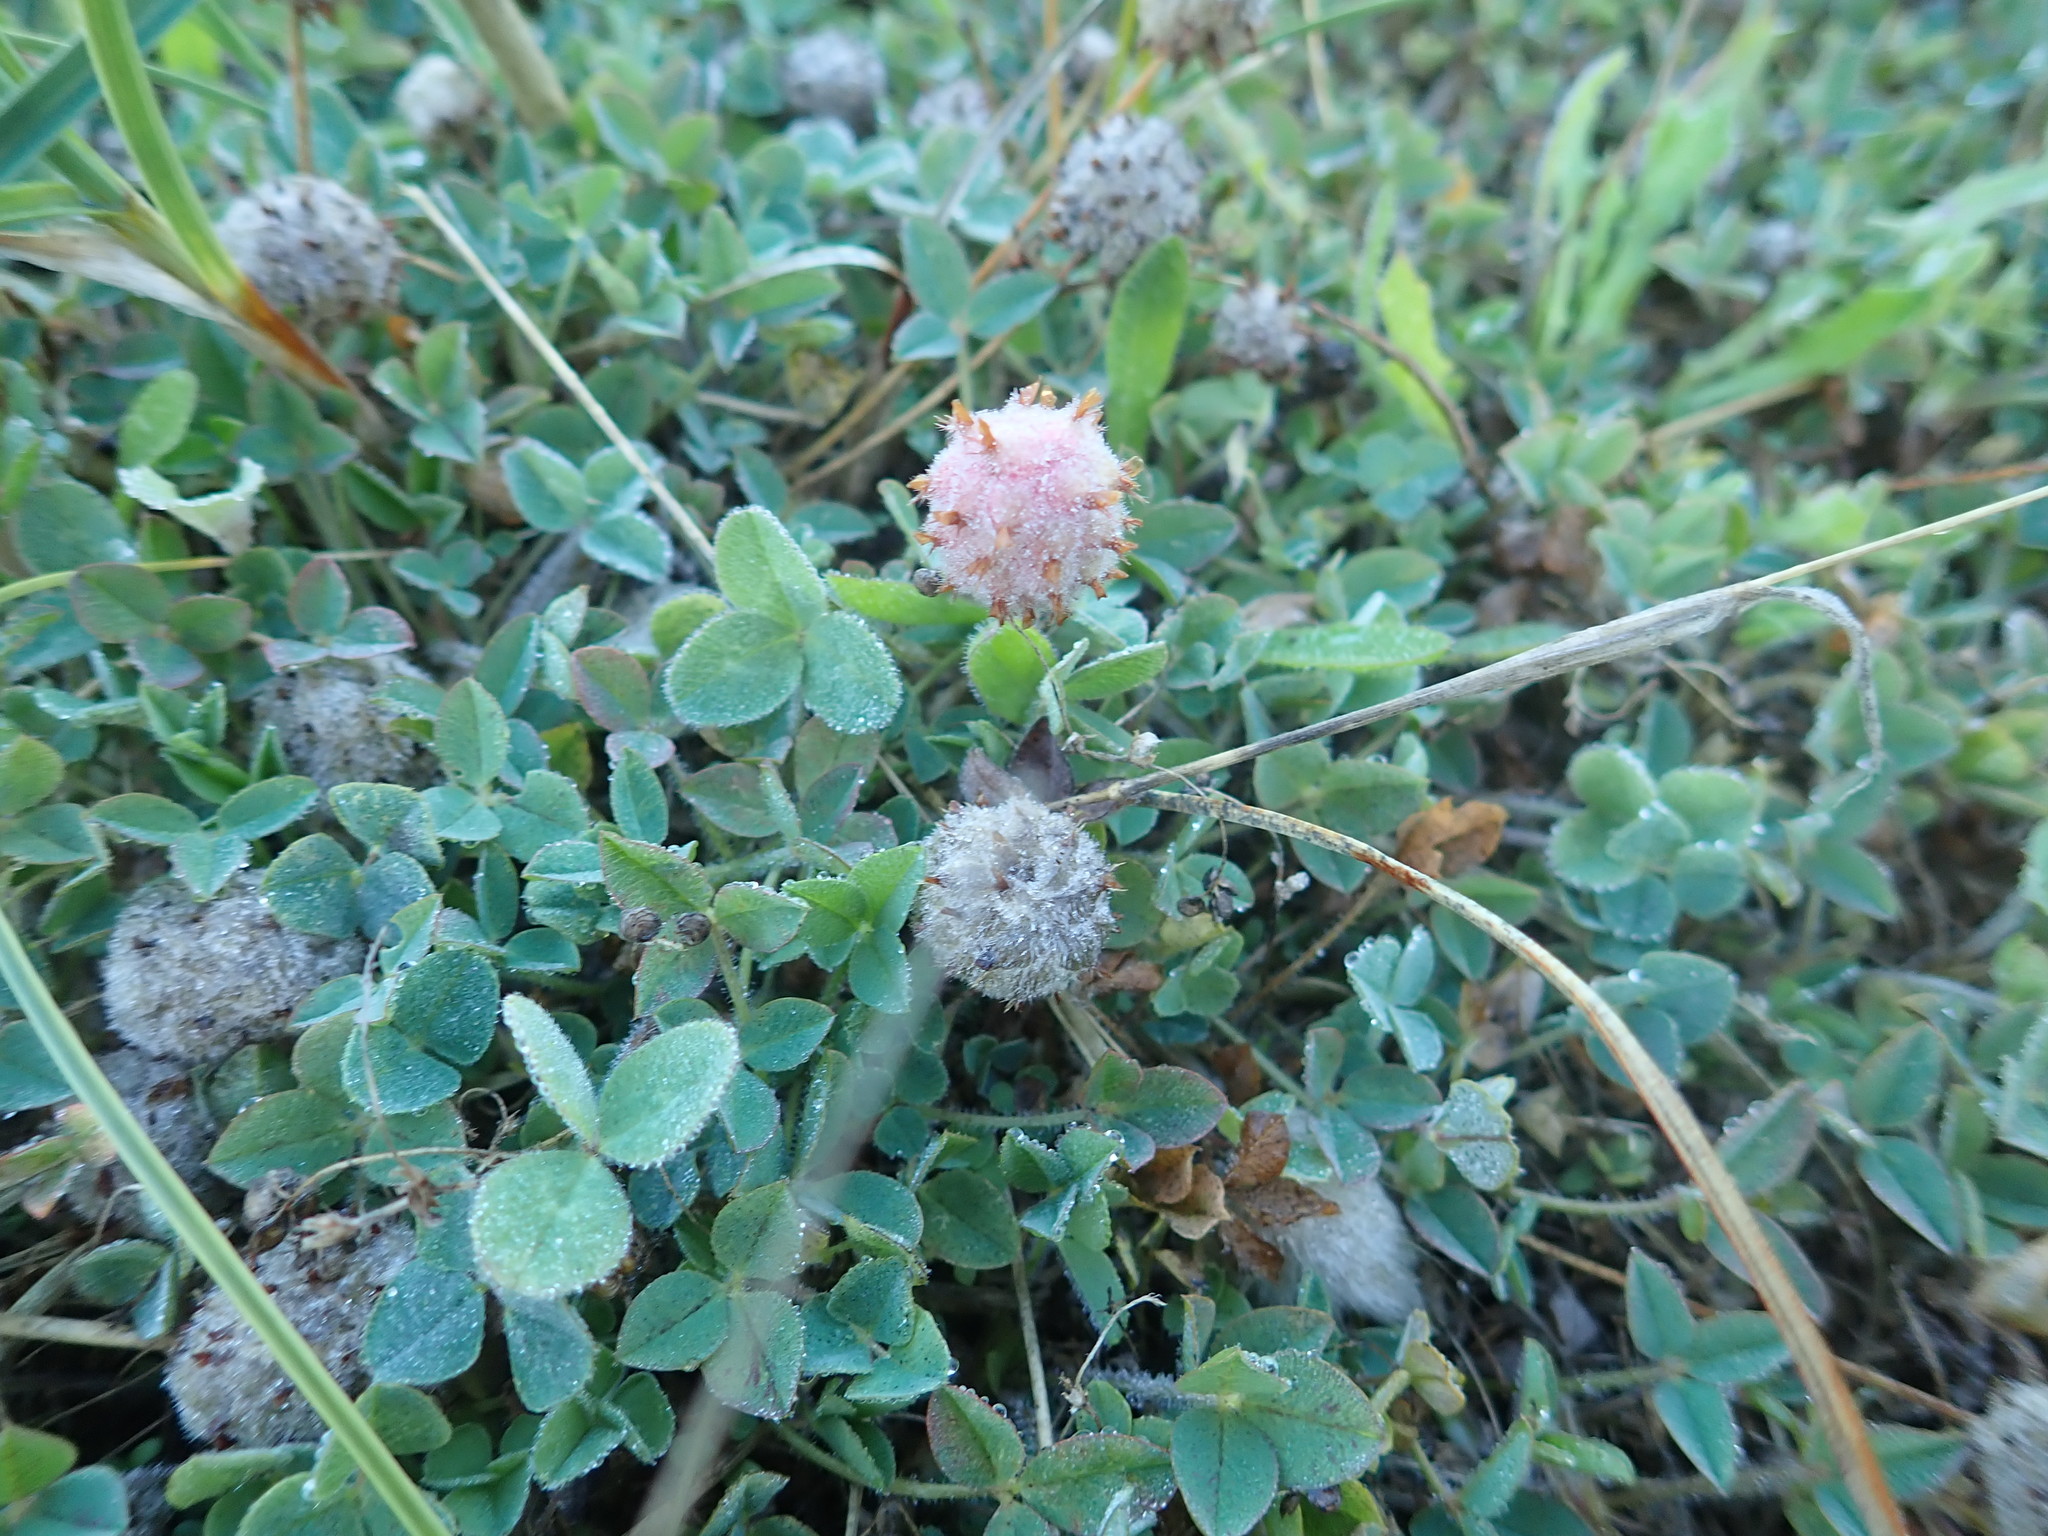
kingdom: Plantae
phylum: Tracheophyta
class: Magnoliopsida
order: Fabales
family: Fabaceae
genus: Trifolium
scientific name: Trifolium fragiferum
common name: Strawberry clover
